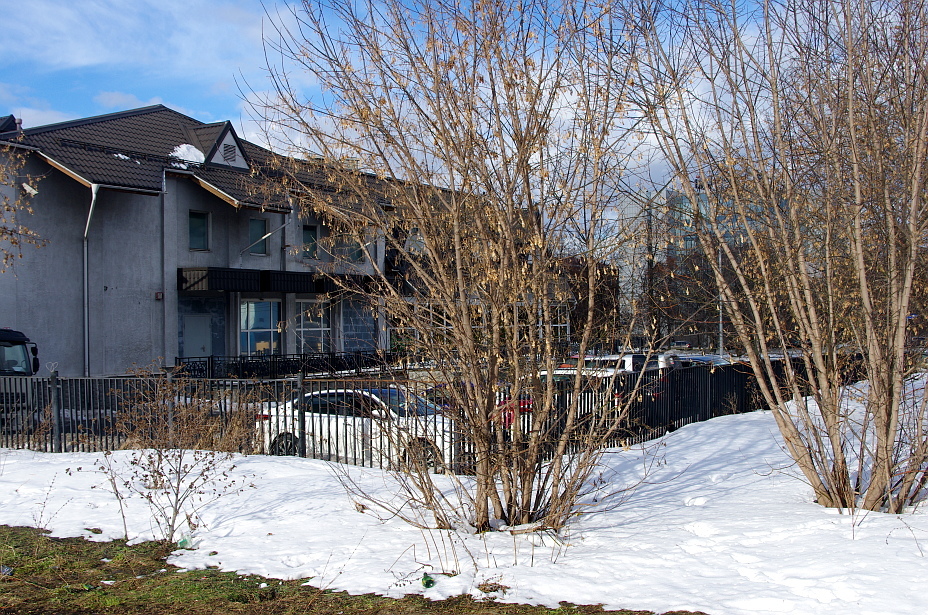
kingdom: Plantae
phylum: Tracheophyta
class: Magnoliopsida
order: Sapindales
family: Sapindaceae
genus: Acer
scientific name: Acer negundo
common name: Ashleaf maple
